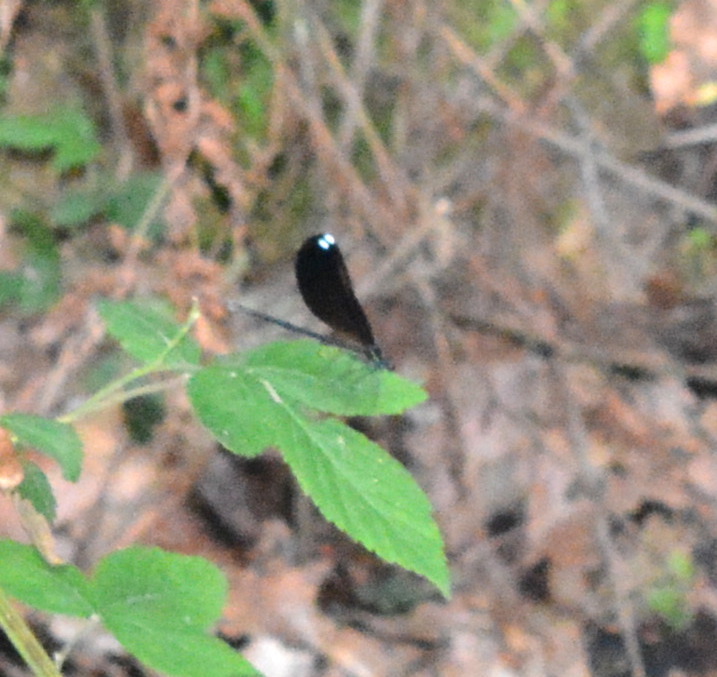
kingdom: Animalia
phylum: Arthropoda
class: Insecta
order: Odonata
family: Calopterygidae
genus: Calopteryx
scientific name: Calopteryx maculata
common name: Ebony jewelwing
